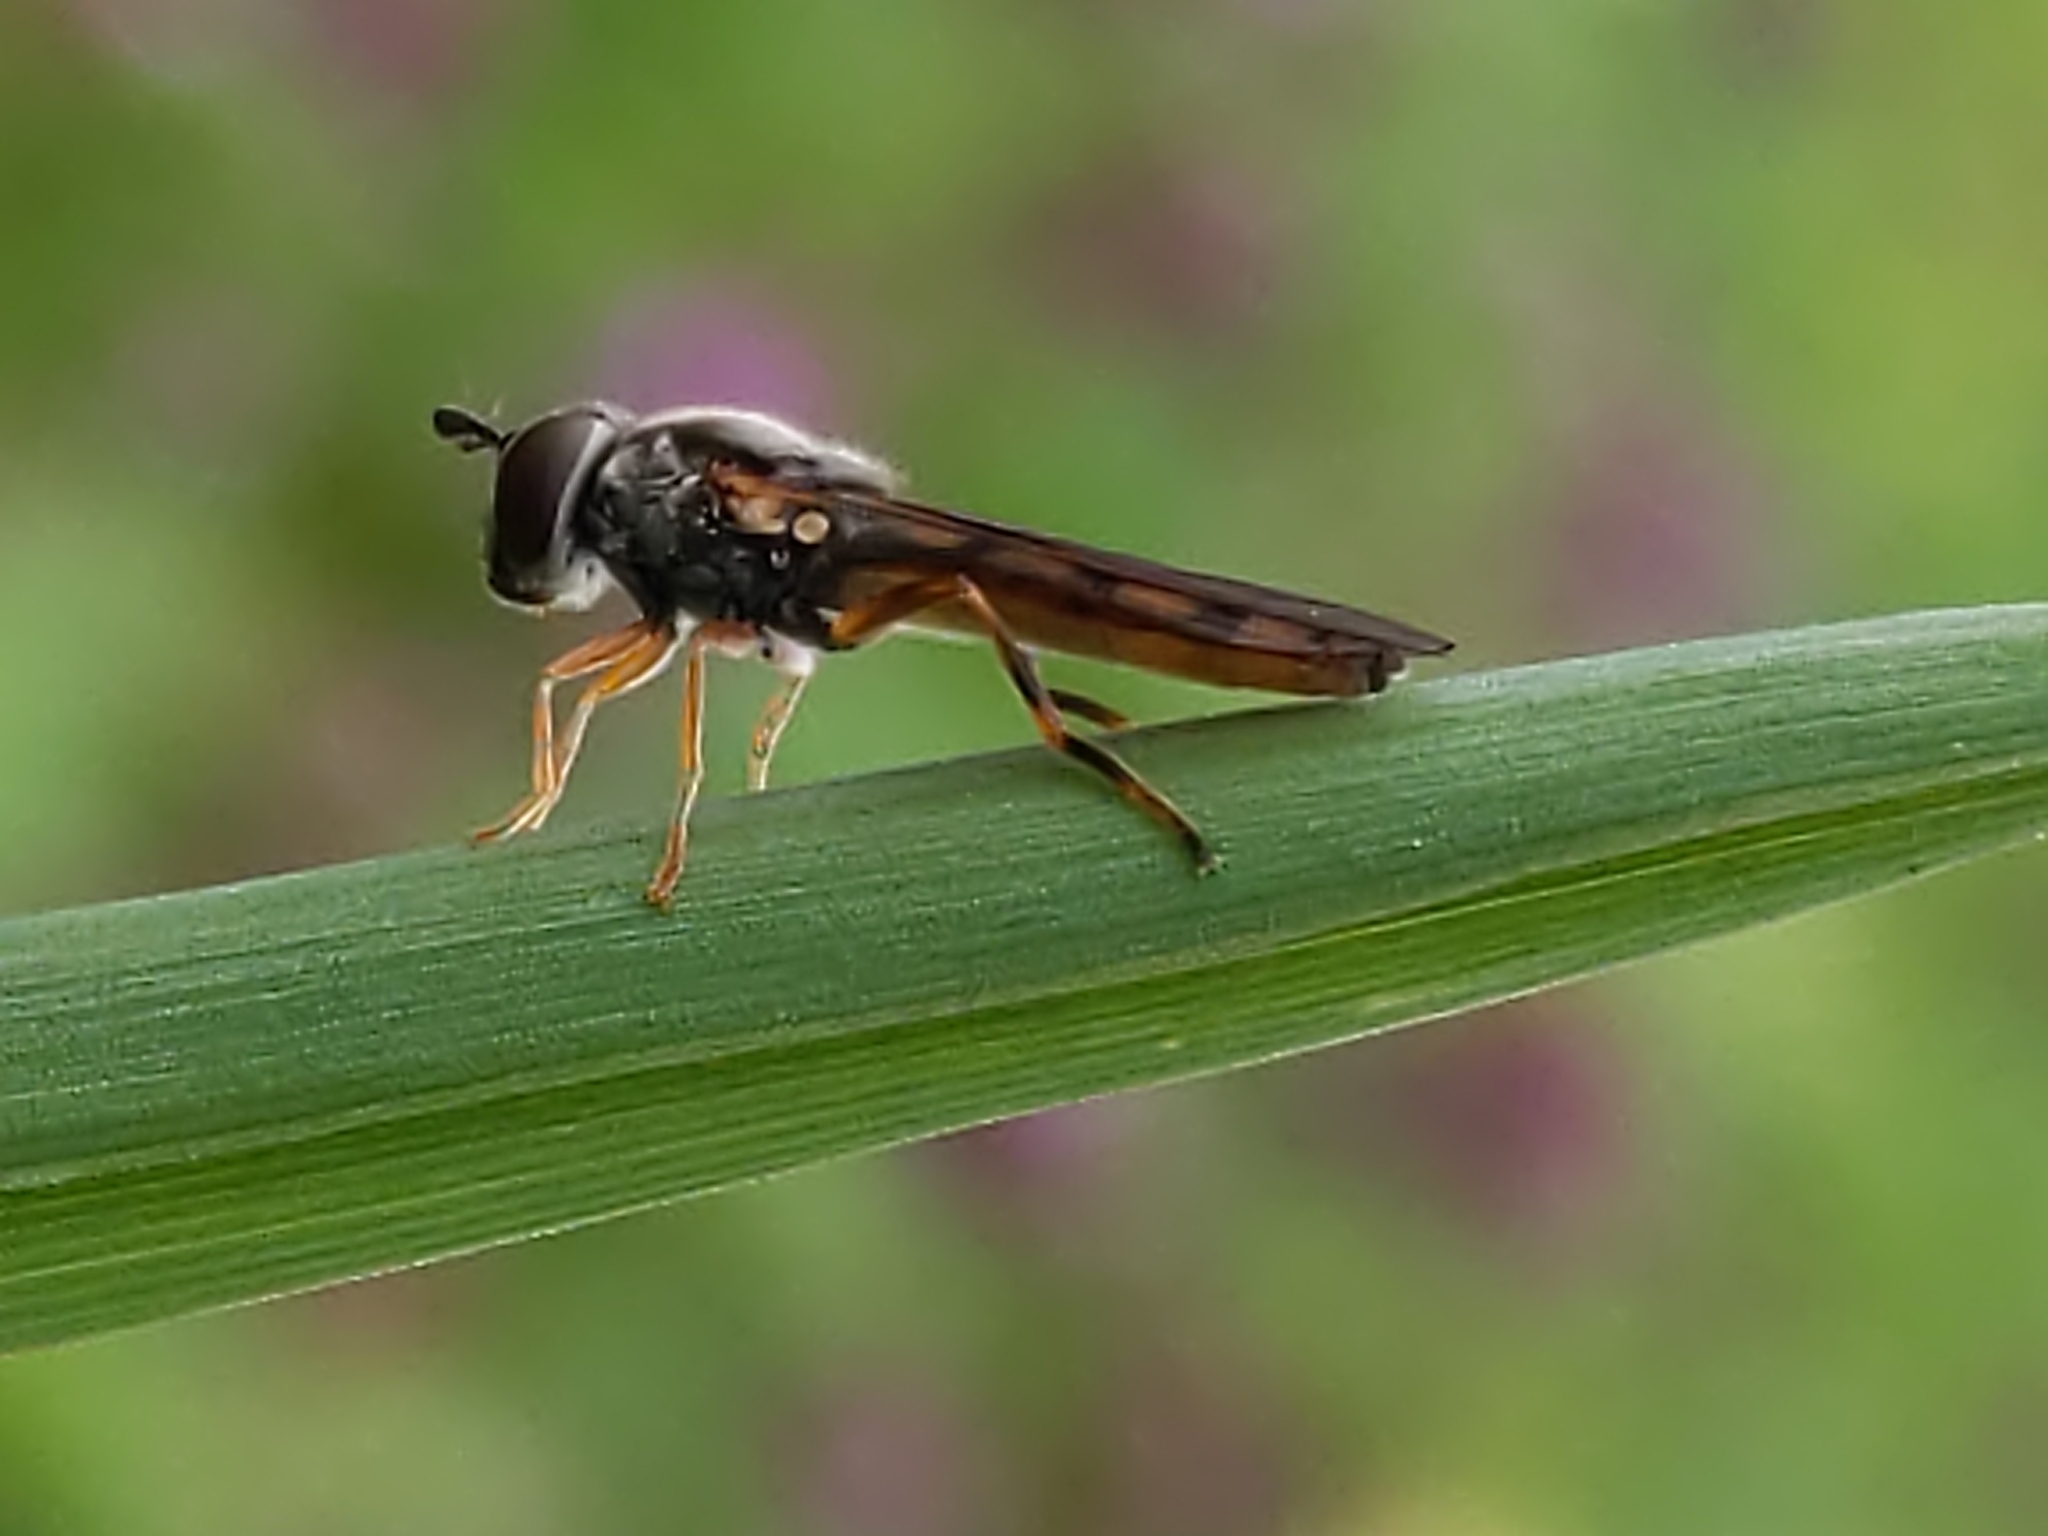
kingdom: Animalia
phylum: Arthropoda
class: Insecta
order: Diptera
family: Syrphidae
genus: Platycheirus
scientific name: Platycheirus
